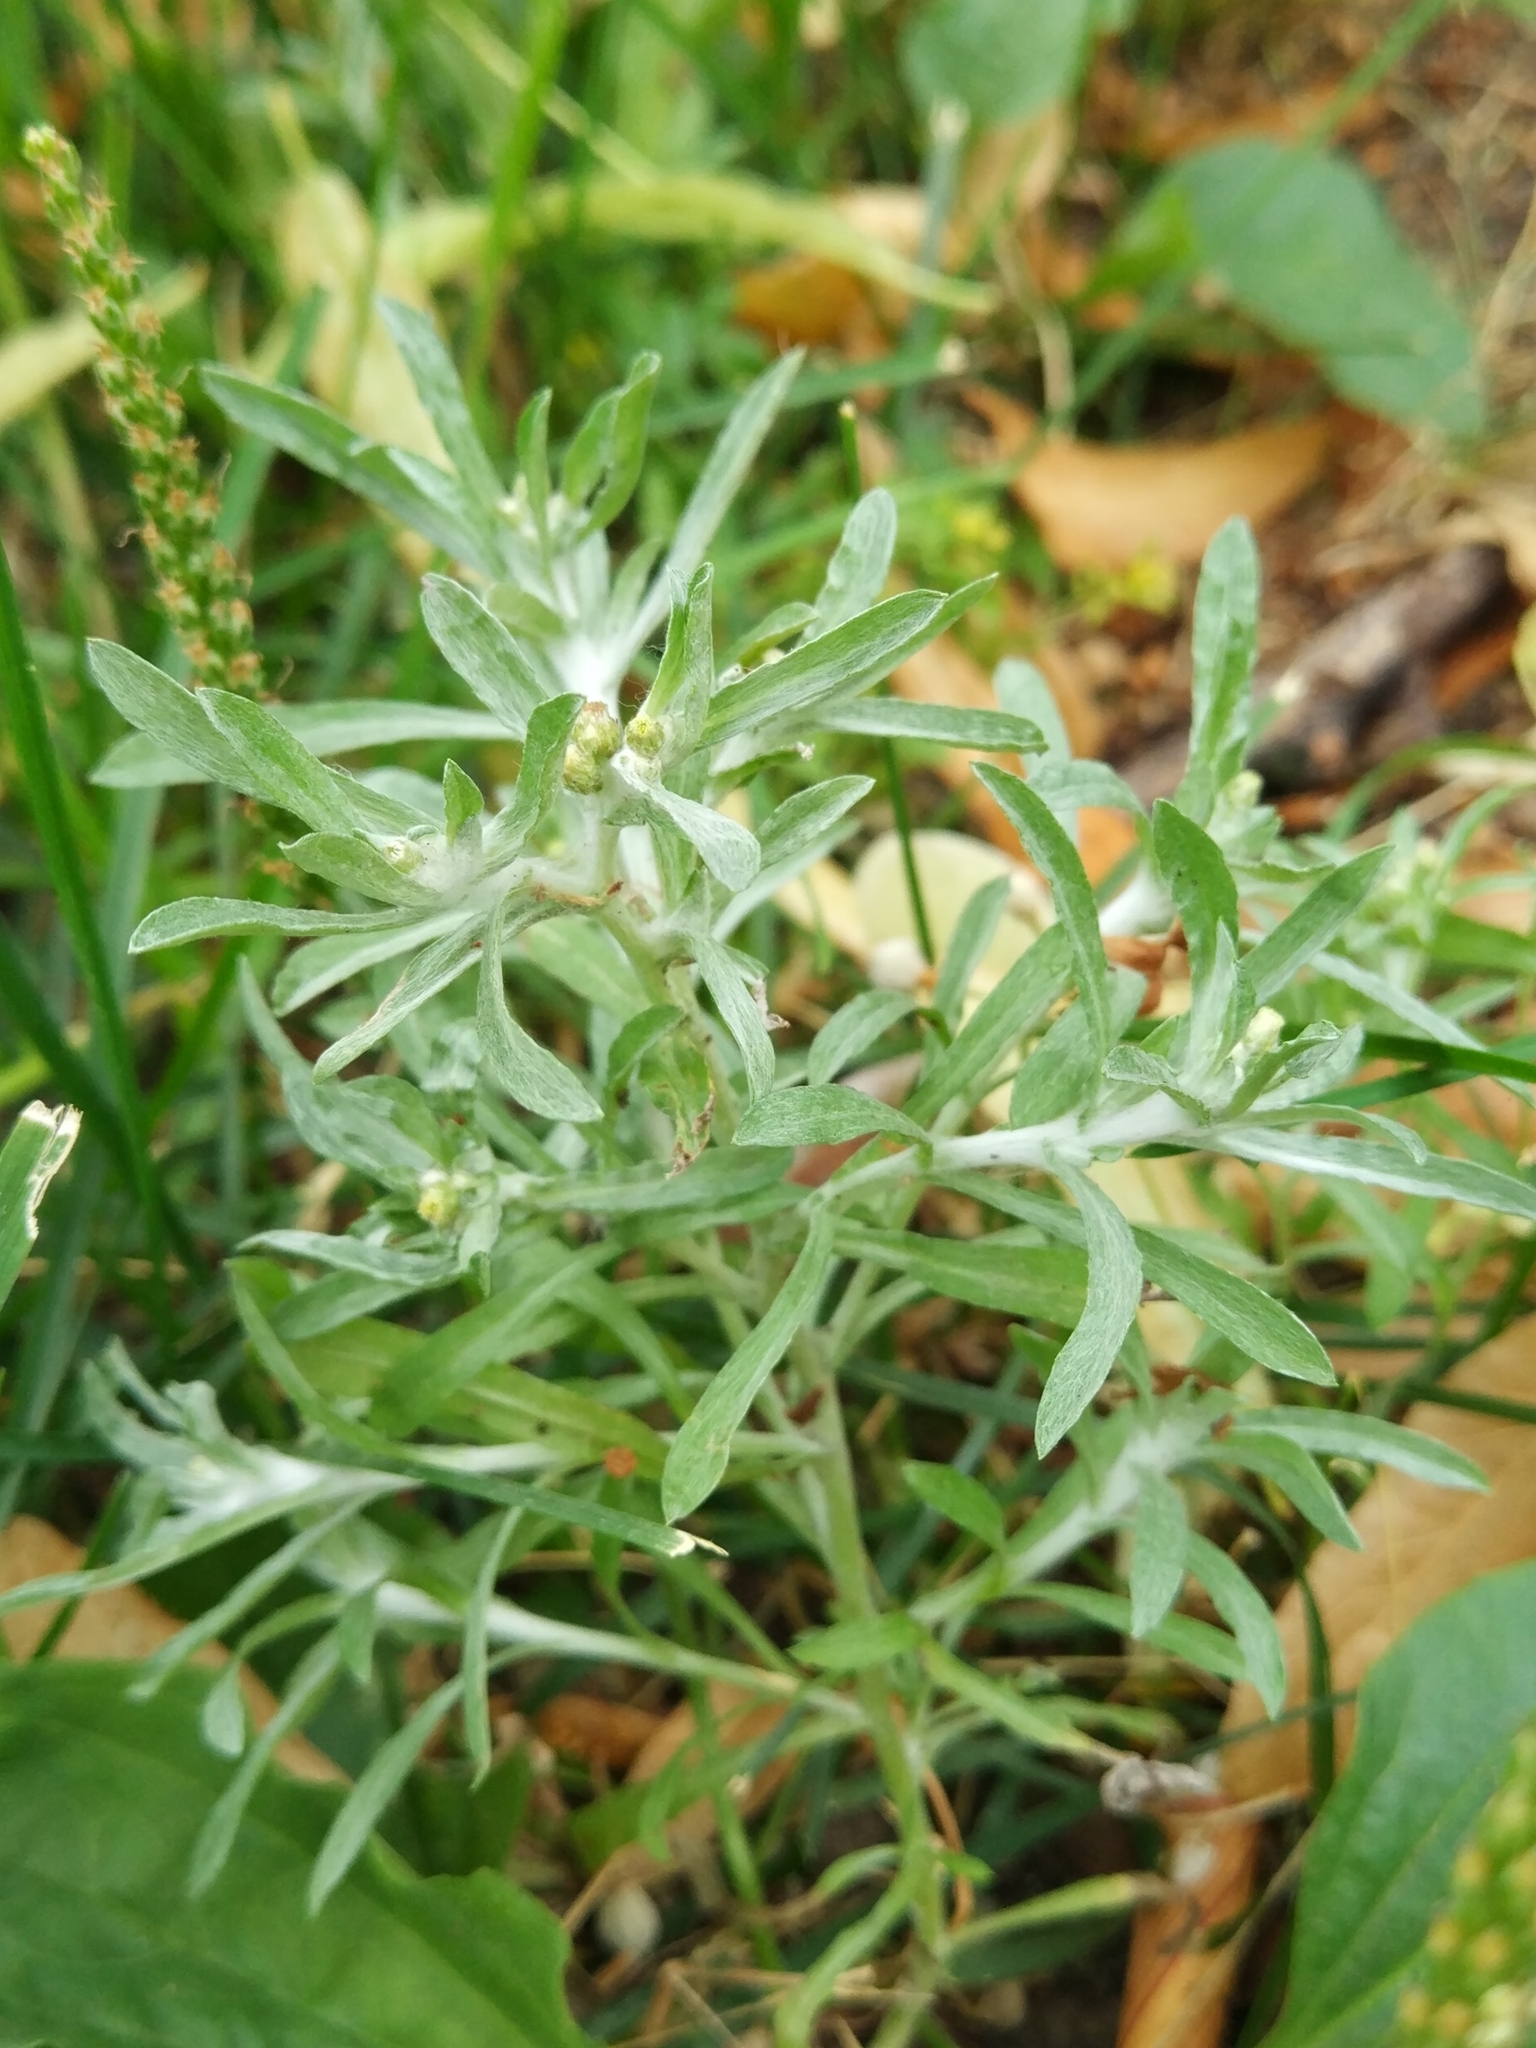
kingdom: Plantae
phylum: Tracheophyta
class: Magnoliopsida
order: Asterales
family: Asteraceae
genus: Gnaphalium
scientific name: Gnaphalium uliginosum
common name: Marsh cudweed
